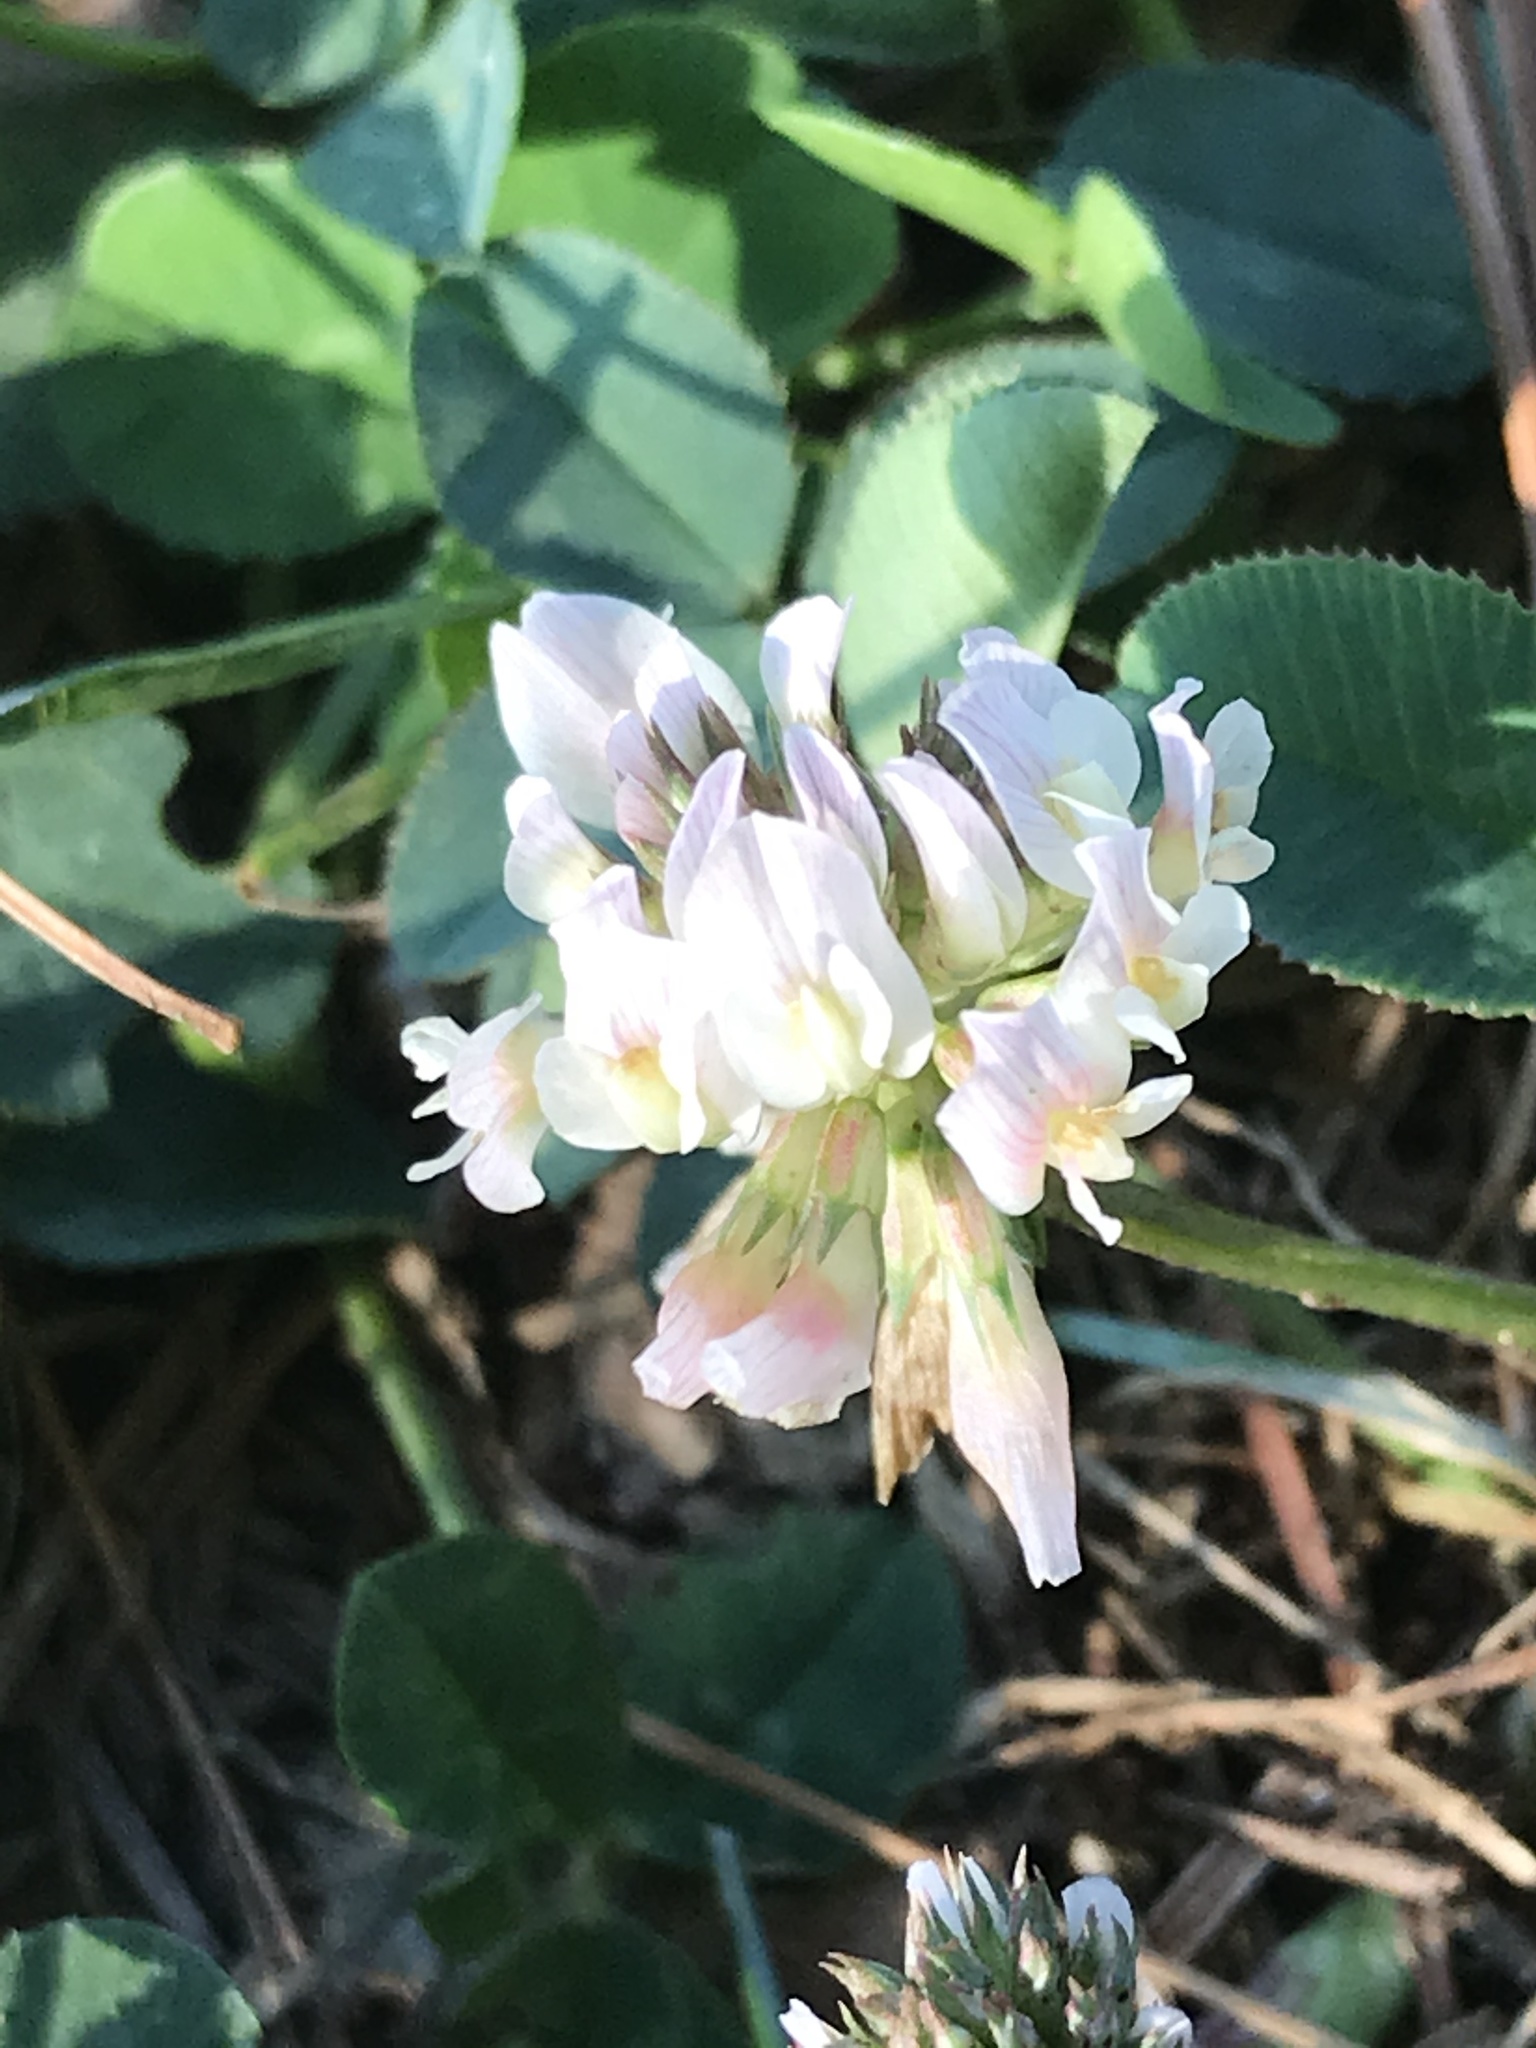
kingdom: Plantae
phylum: Tracheophyta
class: Magnoliopsida
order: Fabales
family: Fabaceae
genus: Trifolium
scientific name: Trifolium repens
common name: White clover
